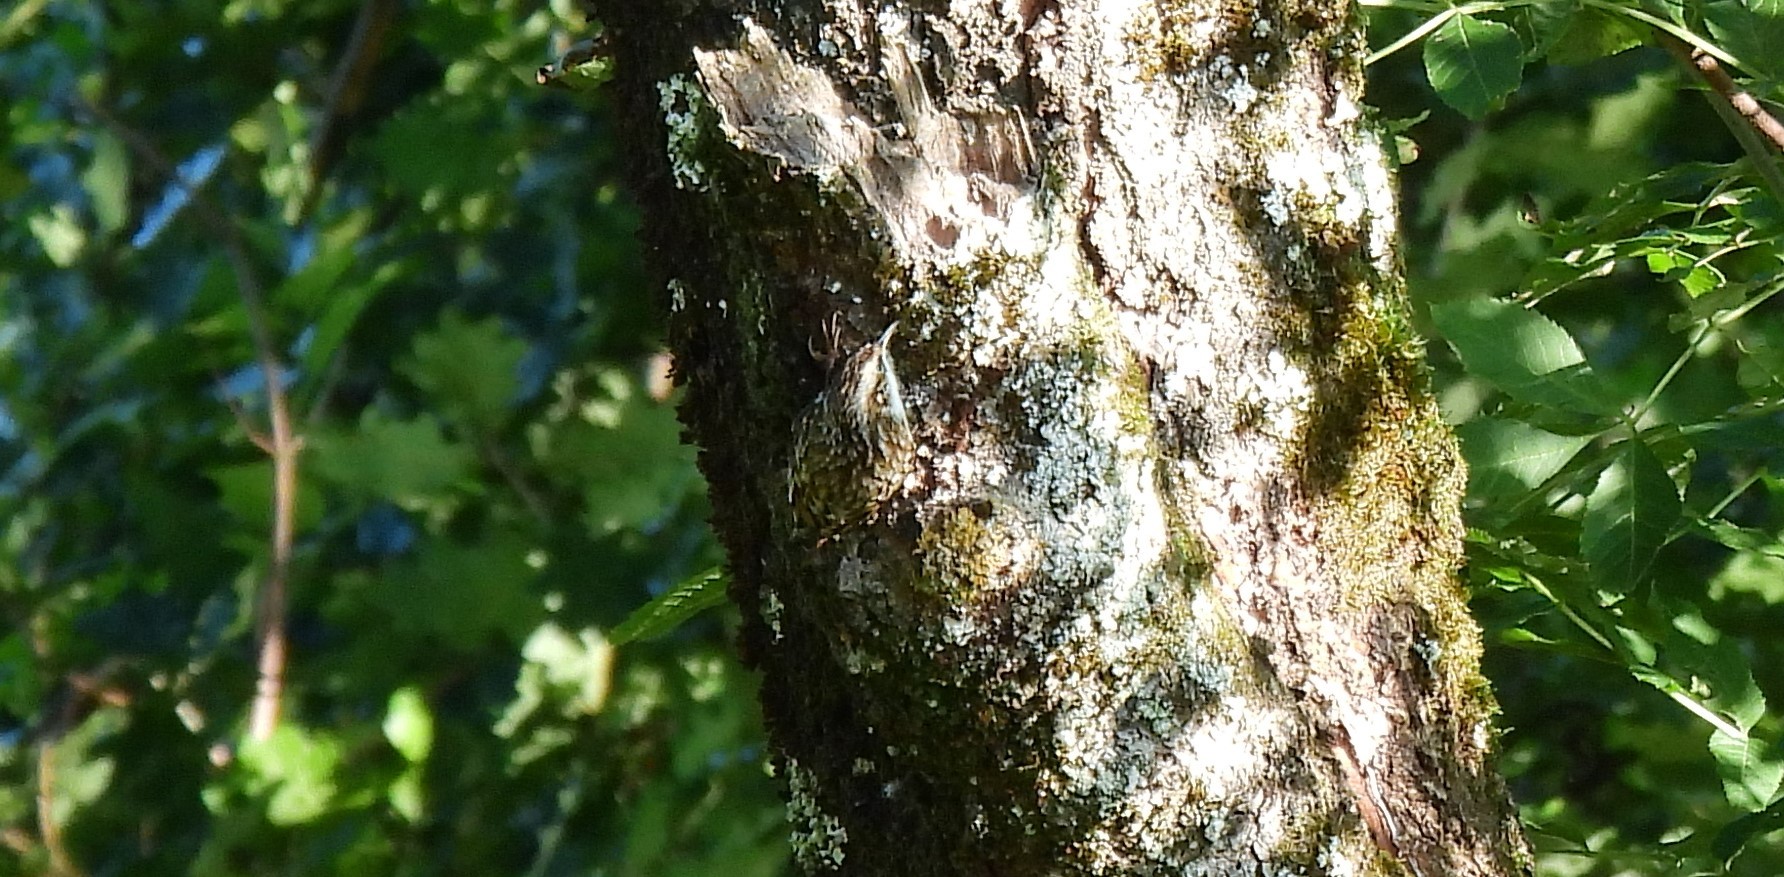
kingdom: Animalia
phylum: Chordata
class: Aves
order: Passeriformes
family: Certhiidae
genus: Certhia
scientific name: Certhia
